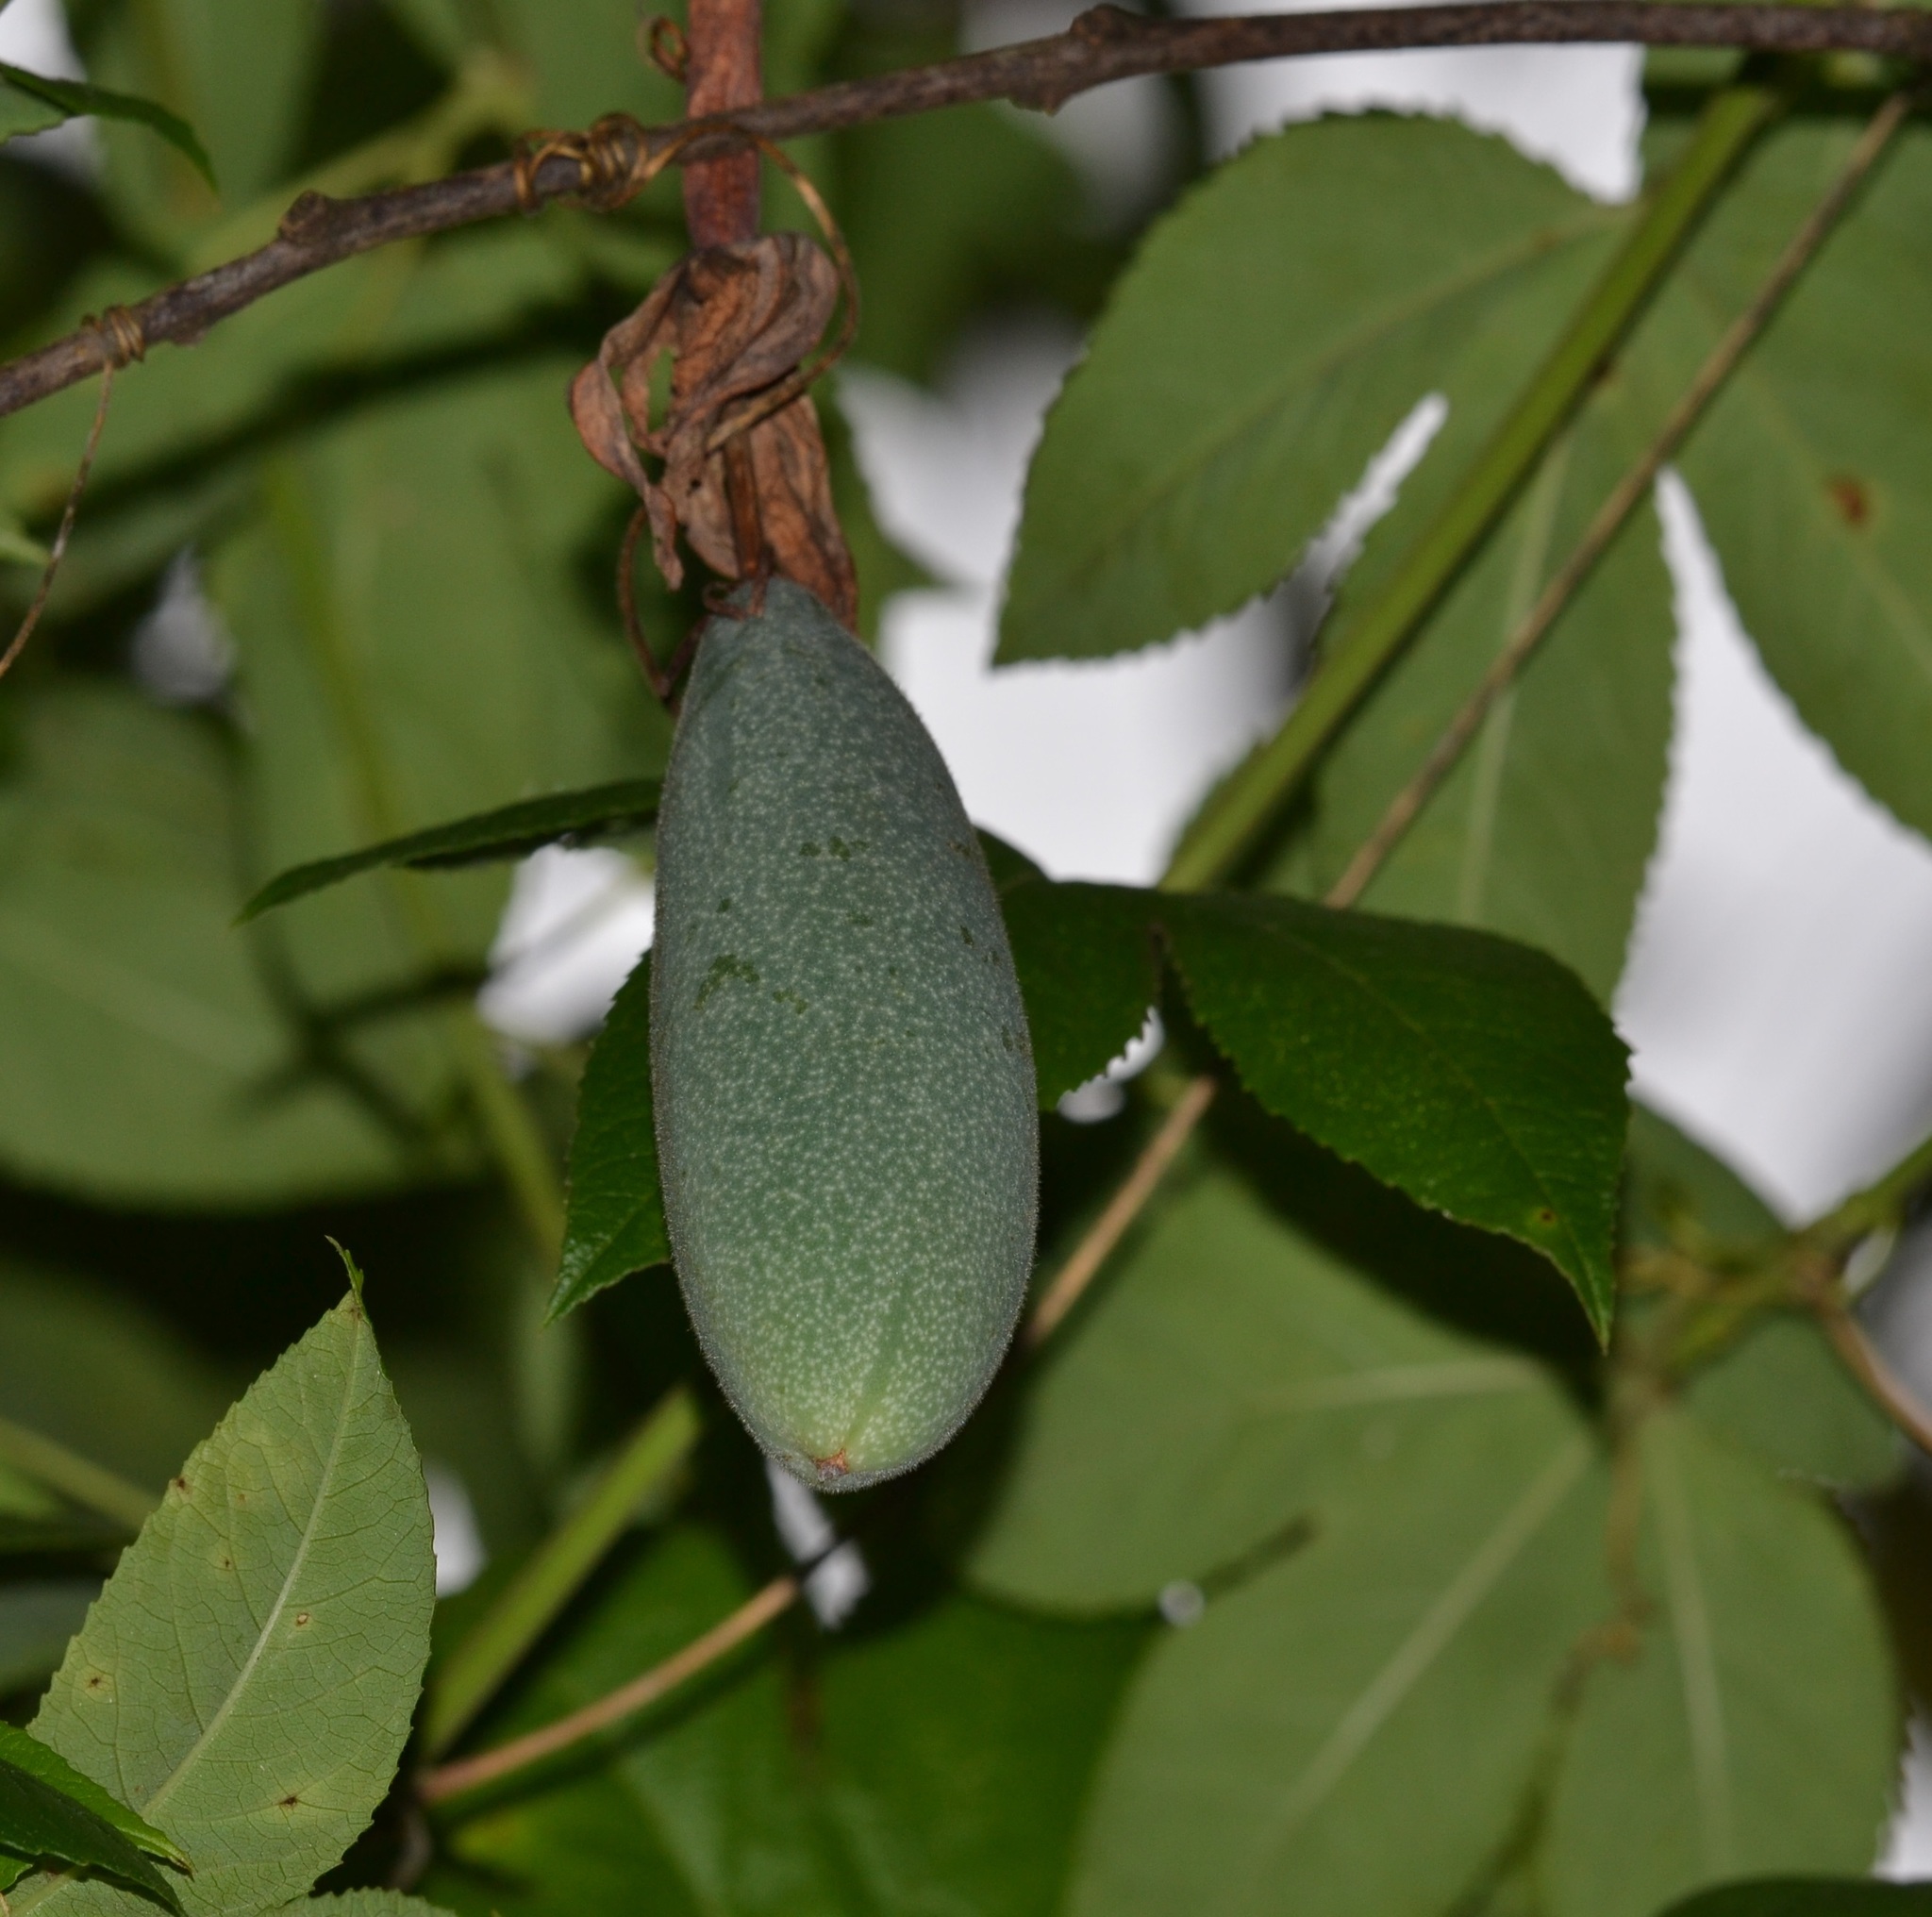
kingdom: Plantae
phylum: Tracheophyta
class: Magnoliopsida
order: Malpighiales
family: Passifloraceae
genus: Passiflora
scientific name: Passiflora tarminiana
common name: Banana poka
